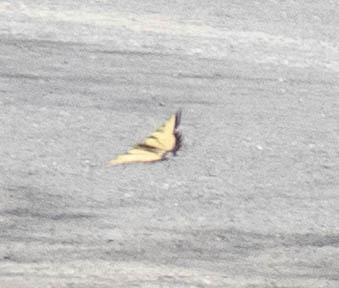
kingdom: Animalia
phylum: Arthropoda
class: Insecta
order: Lepidoptera
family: Papilionidae
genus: Papilio
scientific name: Papilio glaucus
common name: Tiger swallowtail
